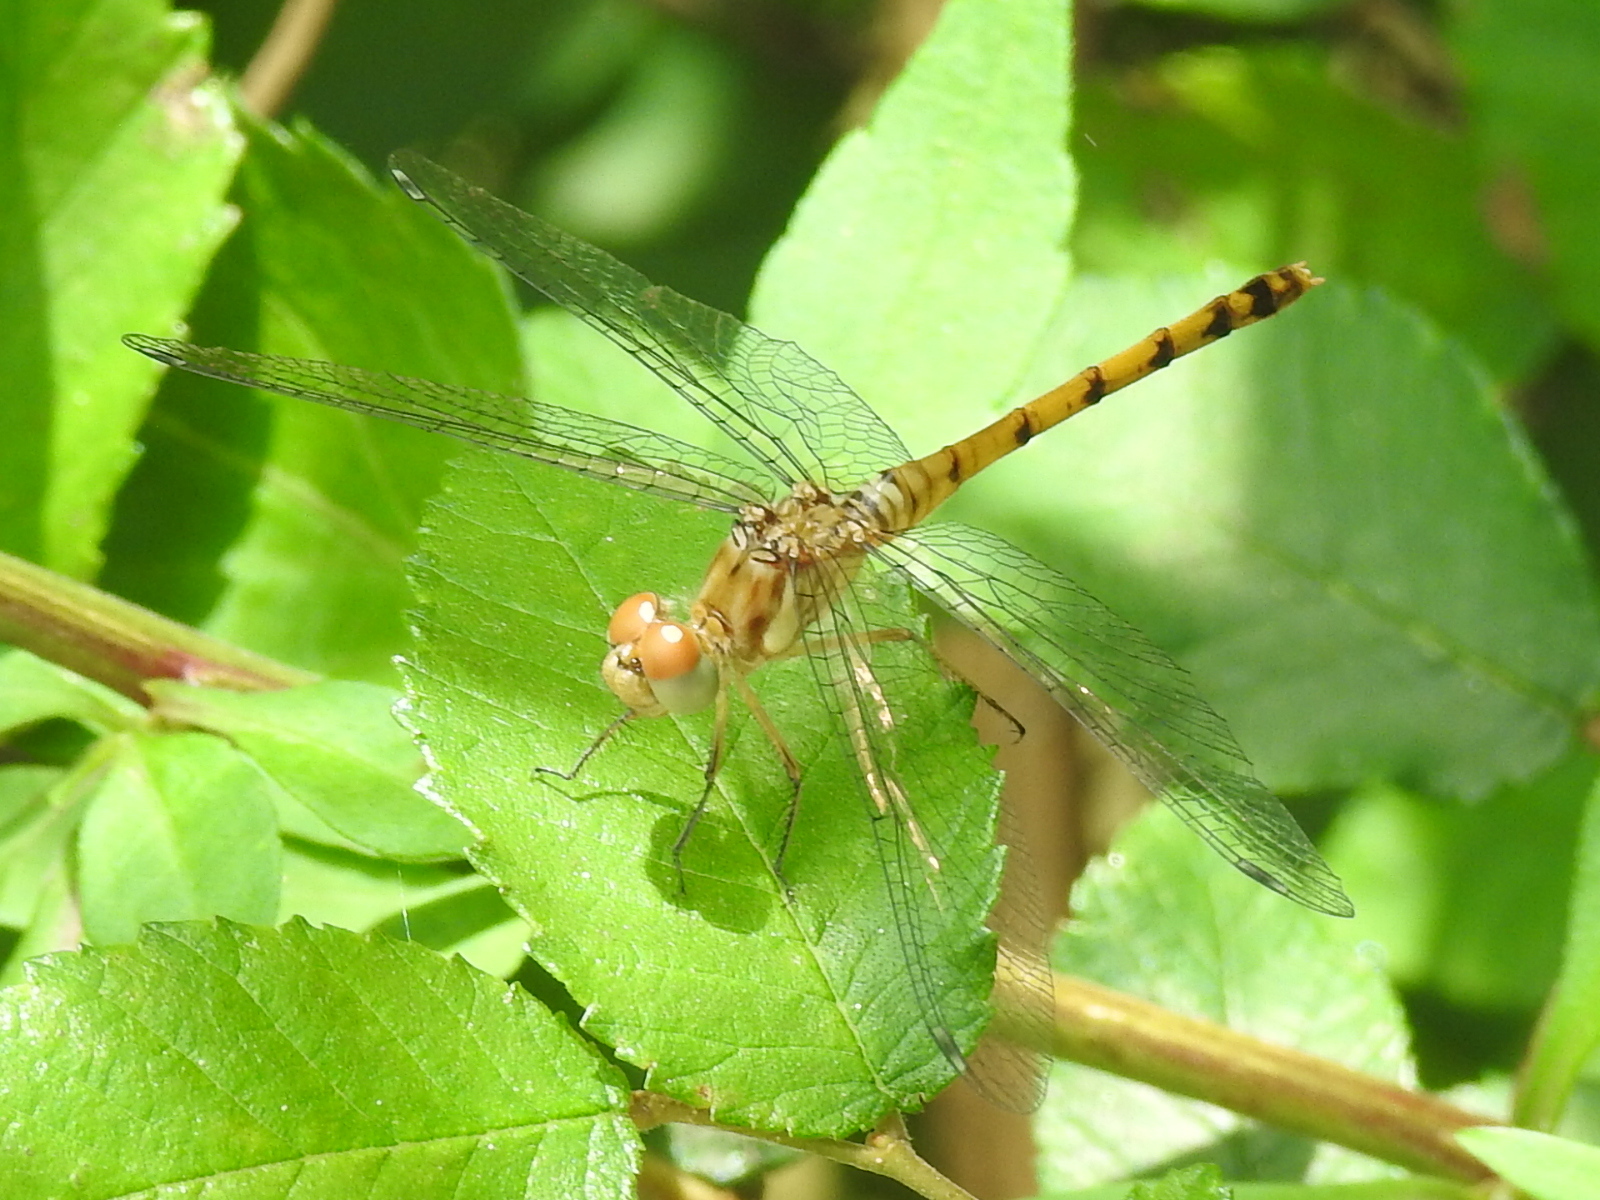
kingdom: Animalia
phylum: Arthropoda
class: Insecta
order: Odonata
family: Libellulidae
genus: Sympetrum
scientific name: Sympetrum ambiguum
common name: Blue-faced meadowhawk
